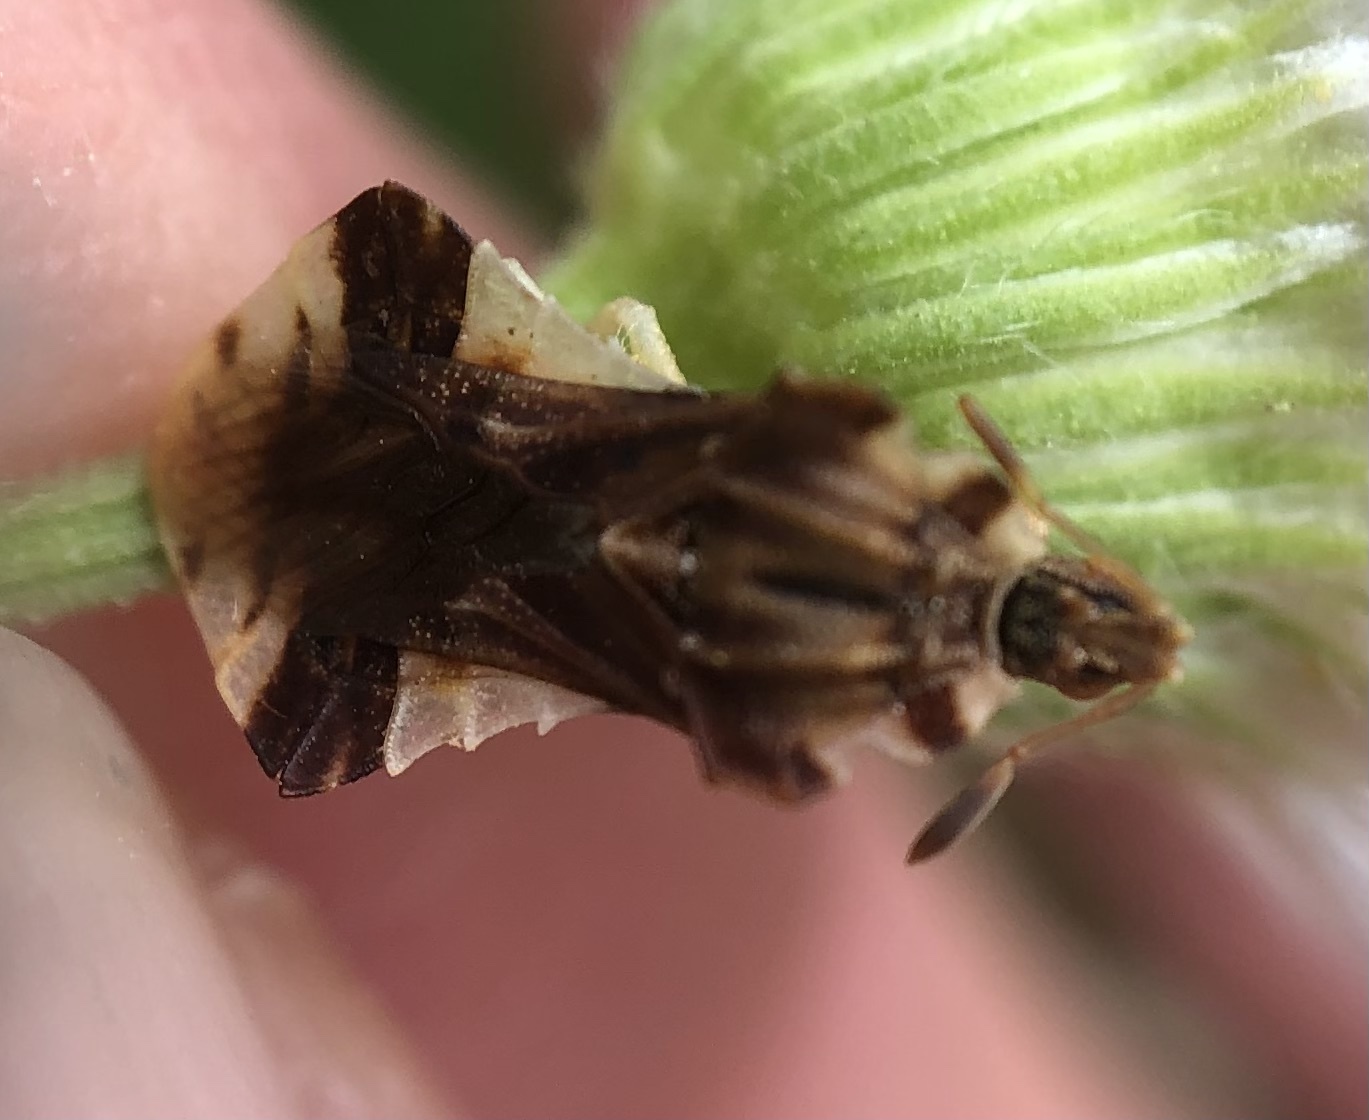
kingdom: Animalia
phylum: Arthropoda
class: Insecta
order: Hemiptera
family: Reduviidae
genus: Phymata
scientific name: Phymata fasciata
